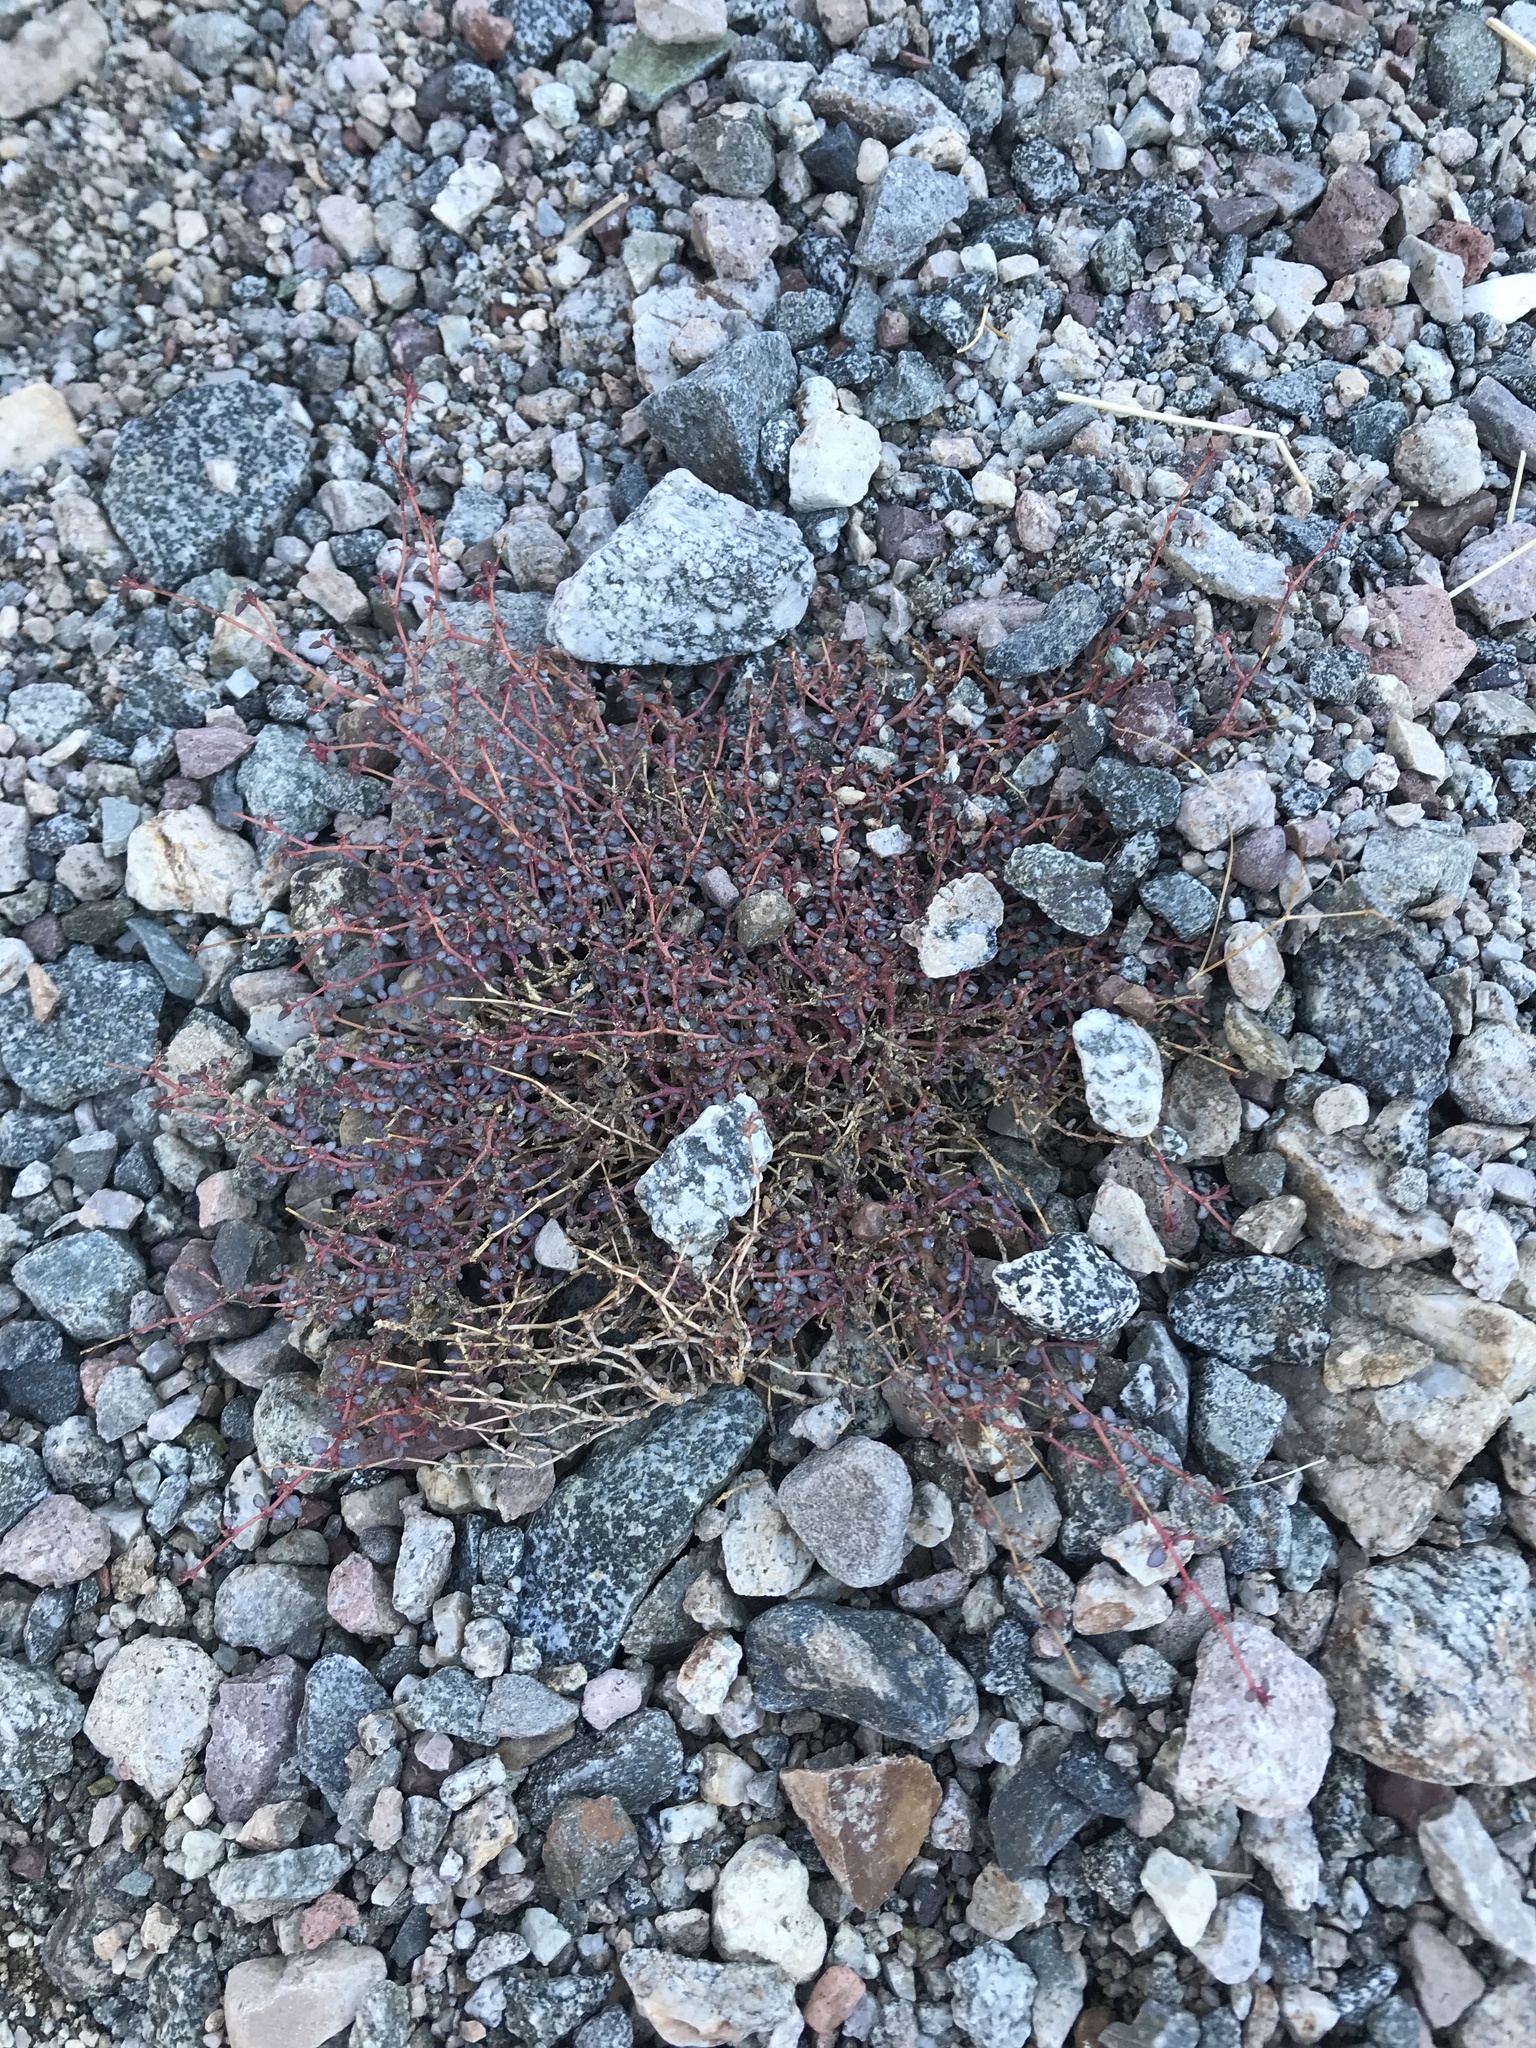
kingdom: Plantae
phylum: Tracheophyta
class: Magnoliopsida
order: Malpighiales
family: Euphorbiaceae
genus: Euphorbia
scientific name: Euphorbia parishii
